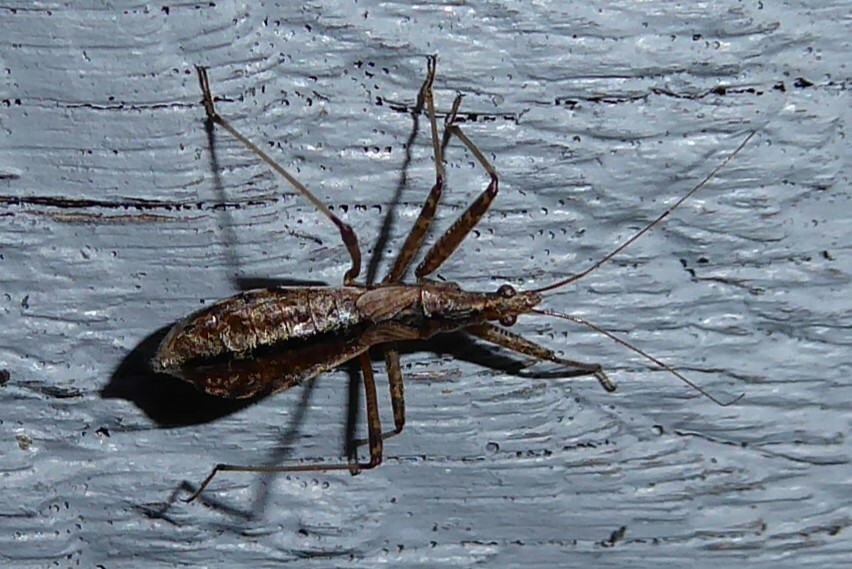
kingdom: Animalia
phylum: Arthropoda
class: Insecta
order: Hemiptera
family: Nabidae
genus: Nabis
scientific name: Nabis
